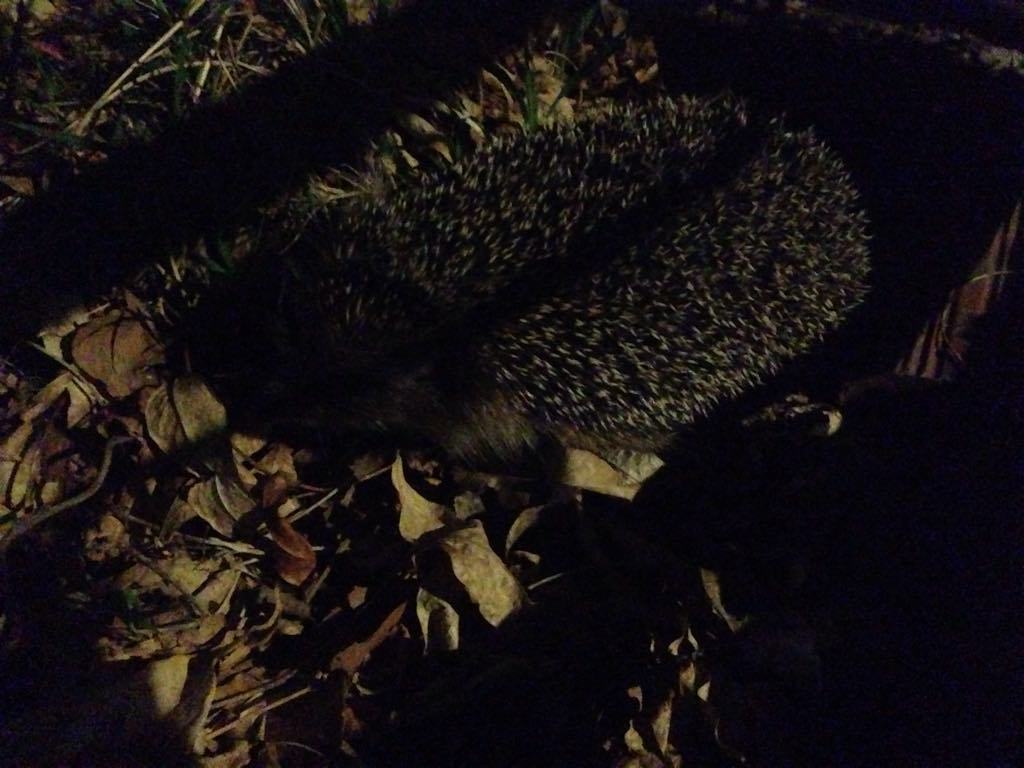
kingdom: Animalia
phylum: Chordata
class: Mammalia
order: Erinaceomorpha
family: Erinaceidae
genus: Erinaceus
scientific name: Erinaceus europaeus
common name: West european hedgehog
